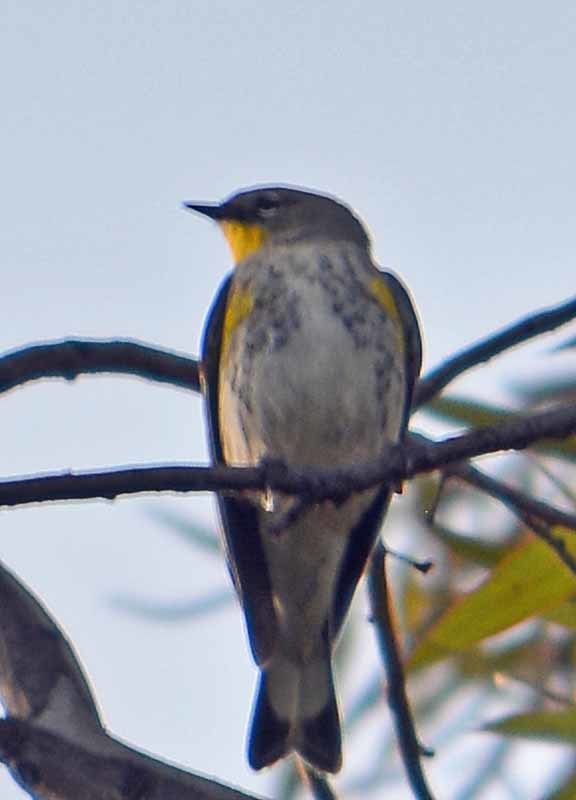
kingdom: Animalia
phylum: Chordata
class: Aves
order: Passeriformes
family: Parulidae
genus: Setophaga
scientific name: Setophaga coronata
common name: Myrtle warbler
